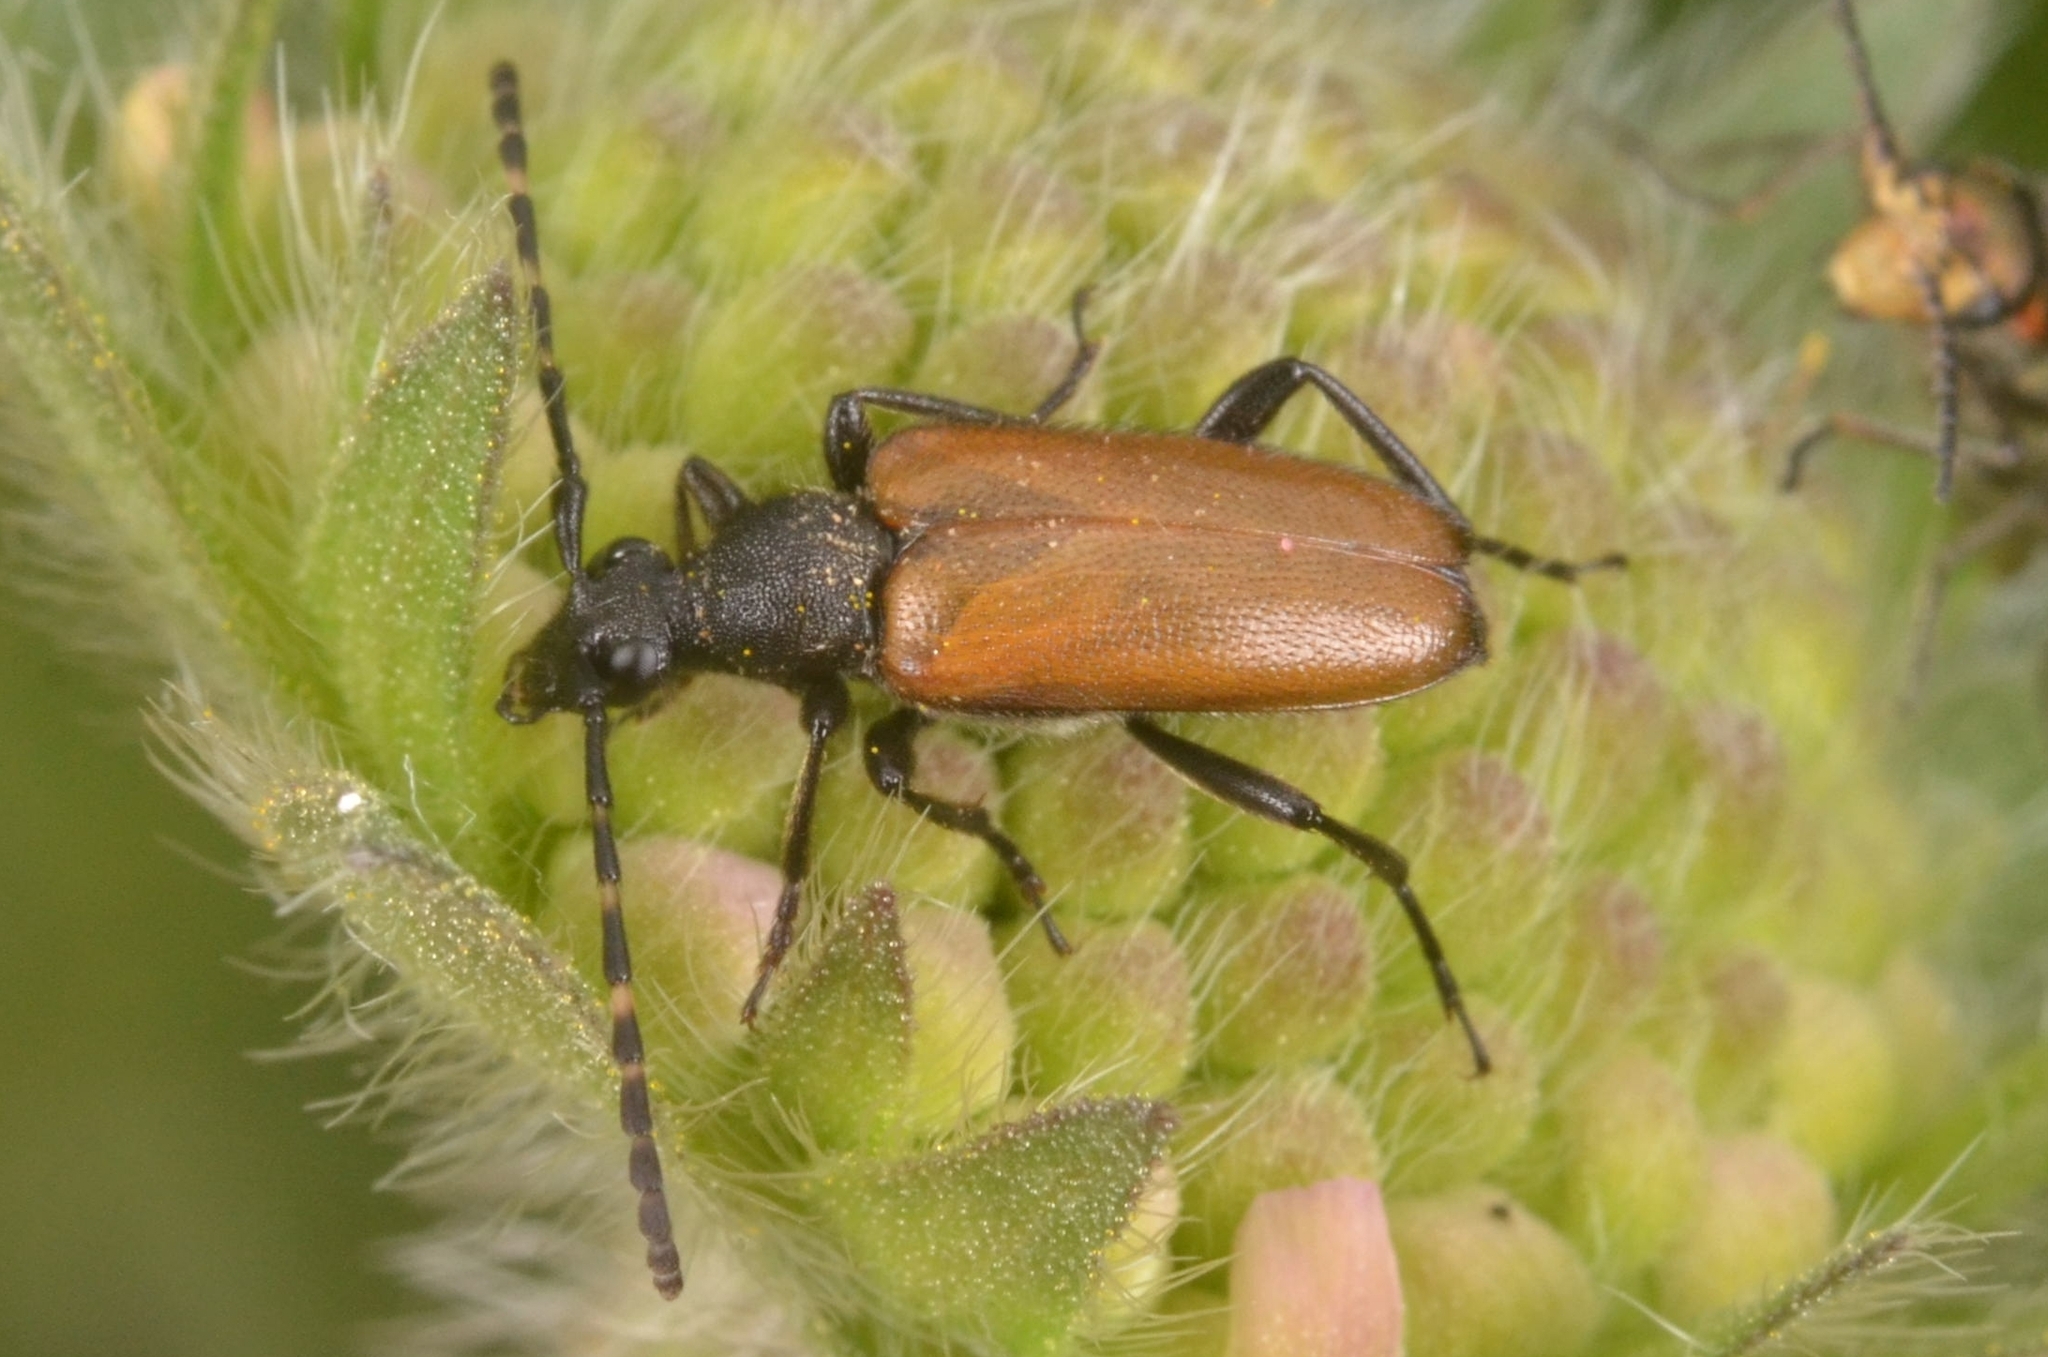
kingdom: Animalia
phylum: Arthropoda
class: Insecta
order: Coleoptera
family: Cerambycidae
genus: Paracorymbia
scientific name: Paracorymbia maculicornis
